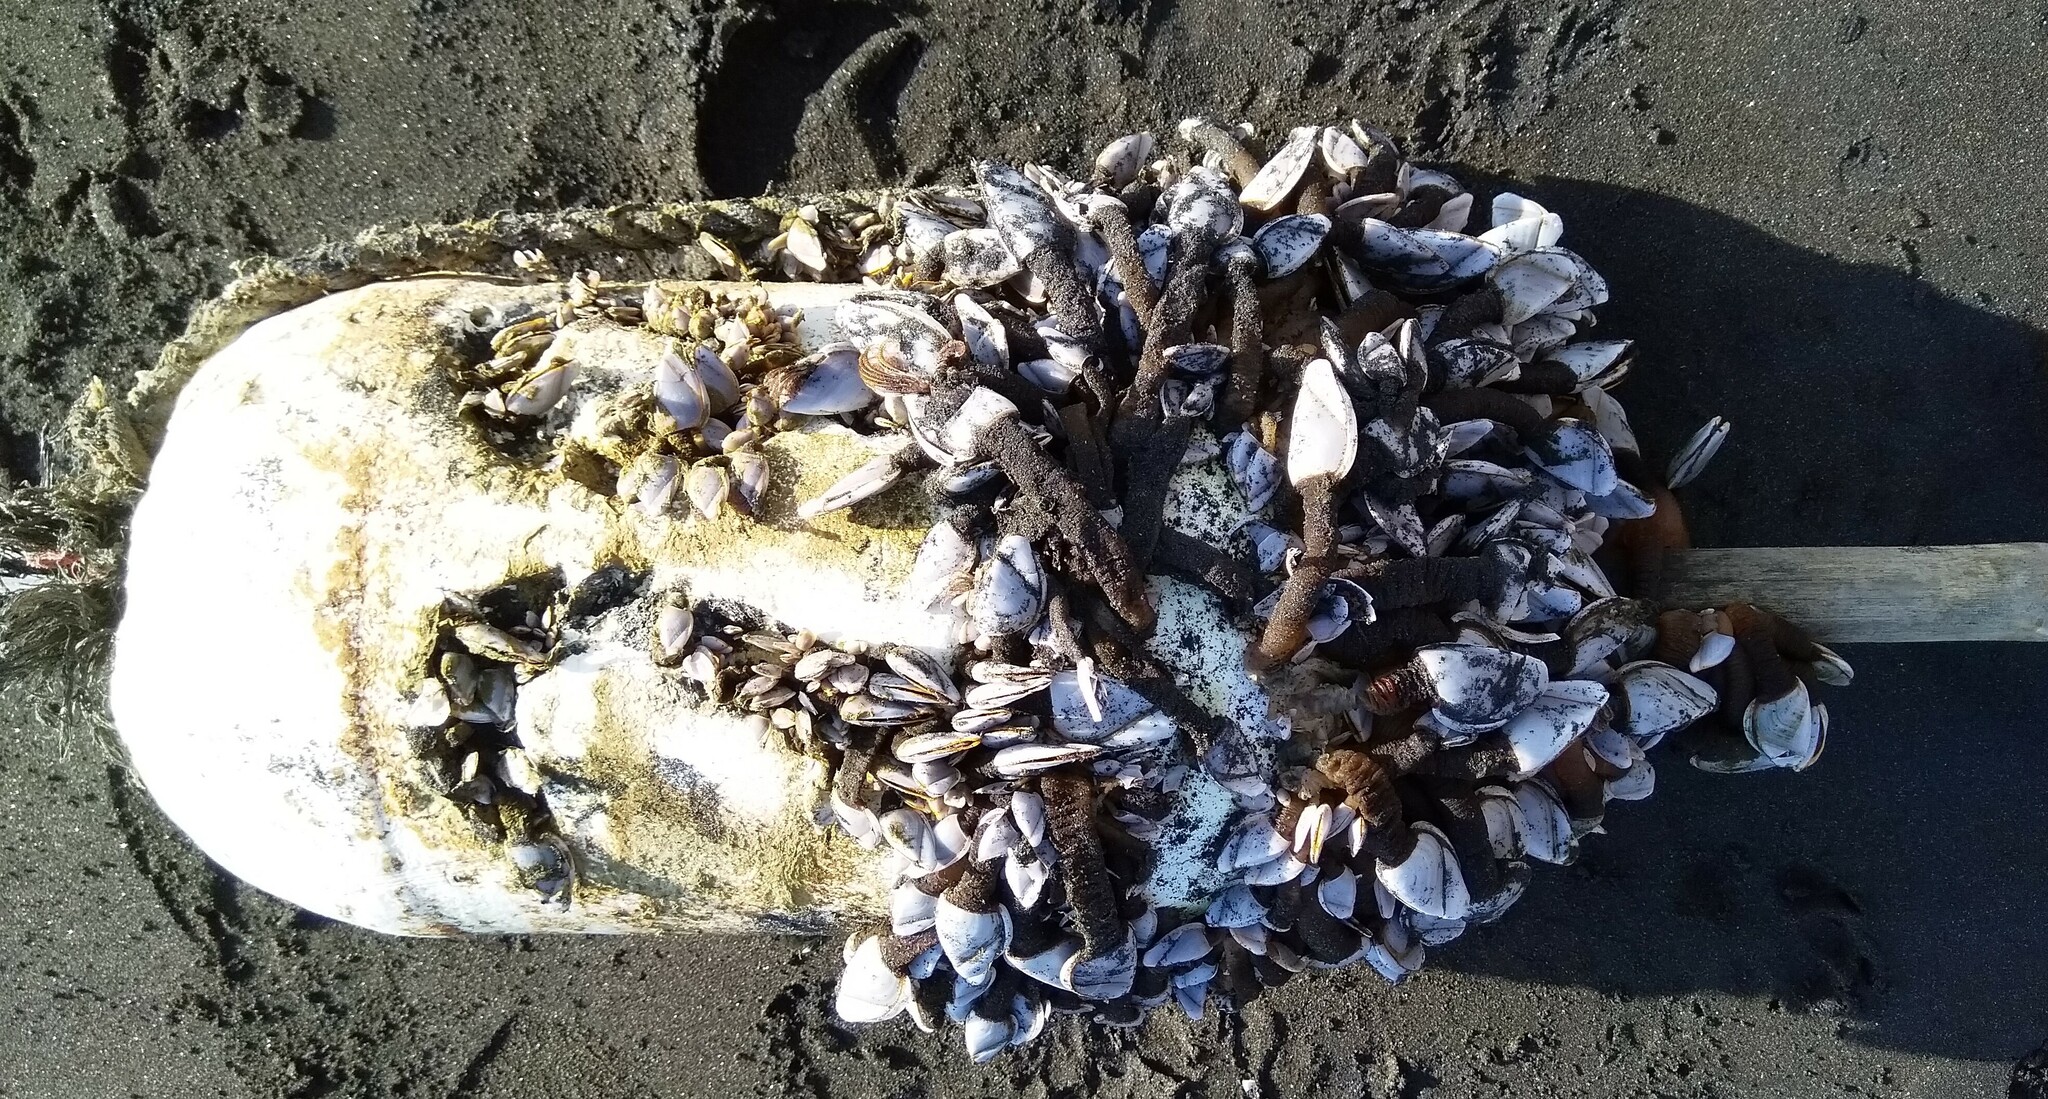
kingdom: Animalia
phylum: Arthropoda
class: Maxillopoda
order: Pedunculata
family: Lepadidae
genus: Lepas
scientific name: Lepas anatifera
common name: Common goose barnacle
